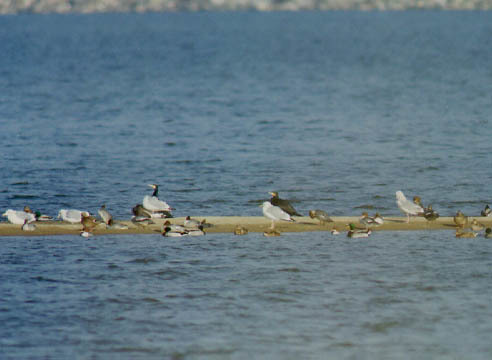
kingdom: Animalia
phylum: Chordata
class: Aves
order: Suliformes
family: Phalacrocoracidae
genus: Phalacrocorax
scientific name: Phalacrocorax capillatus
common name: Japanese cormorant
